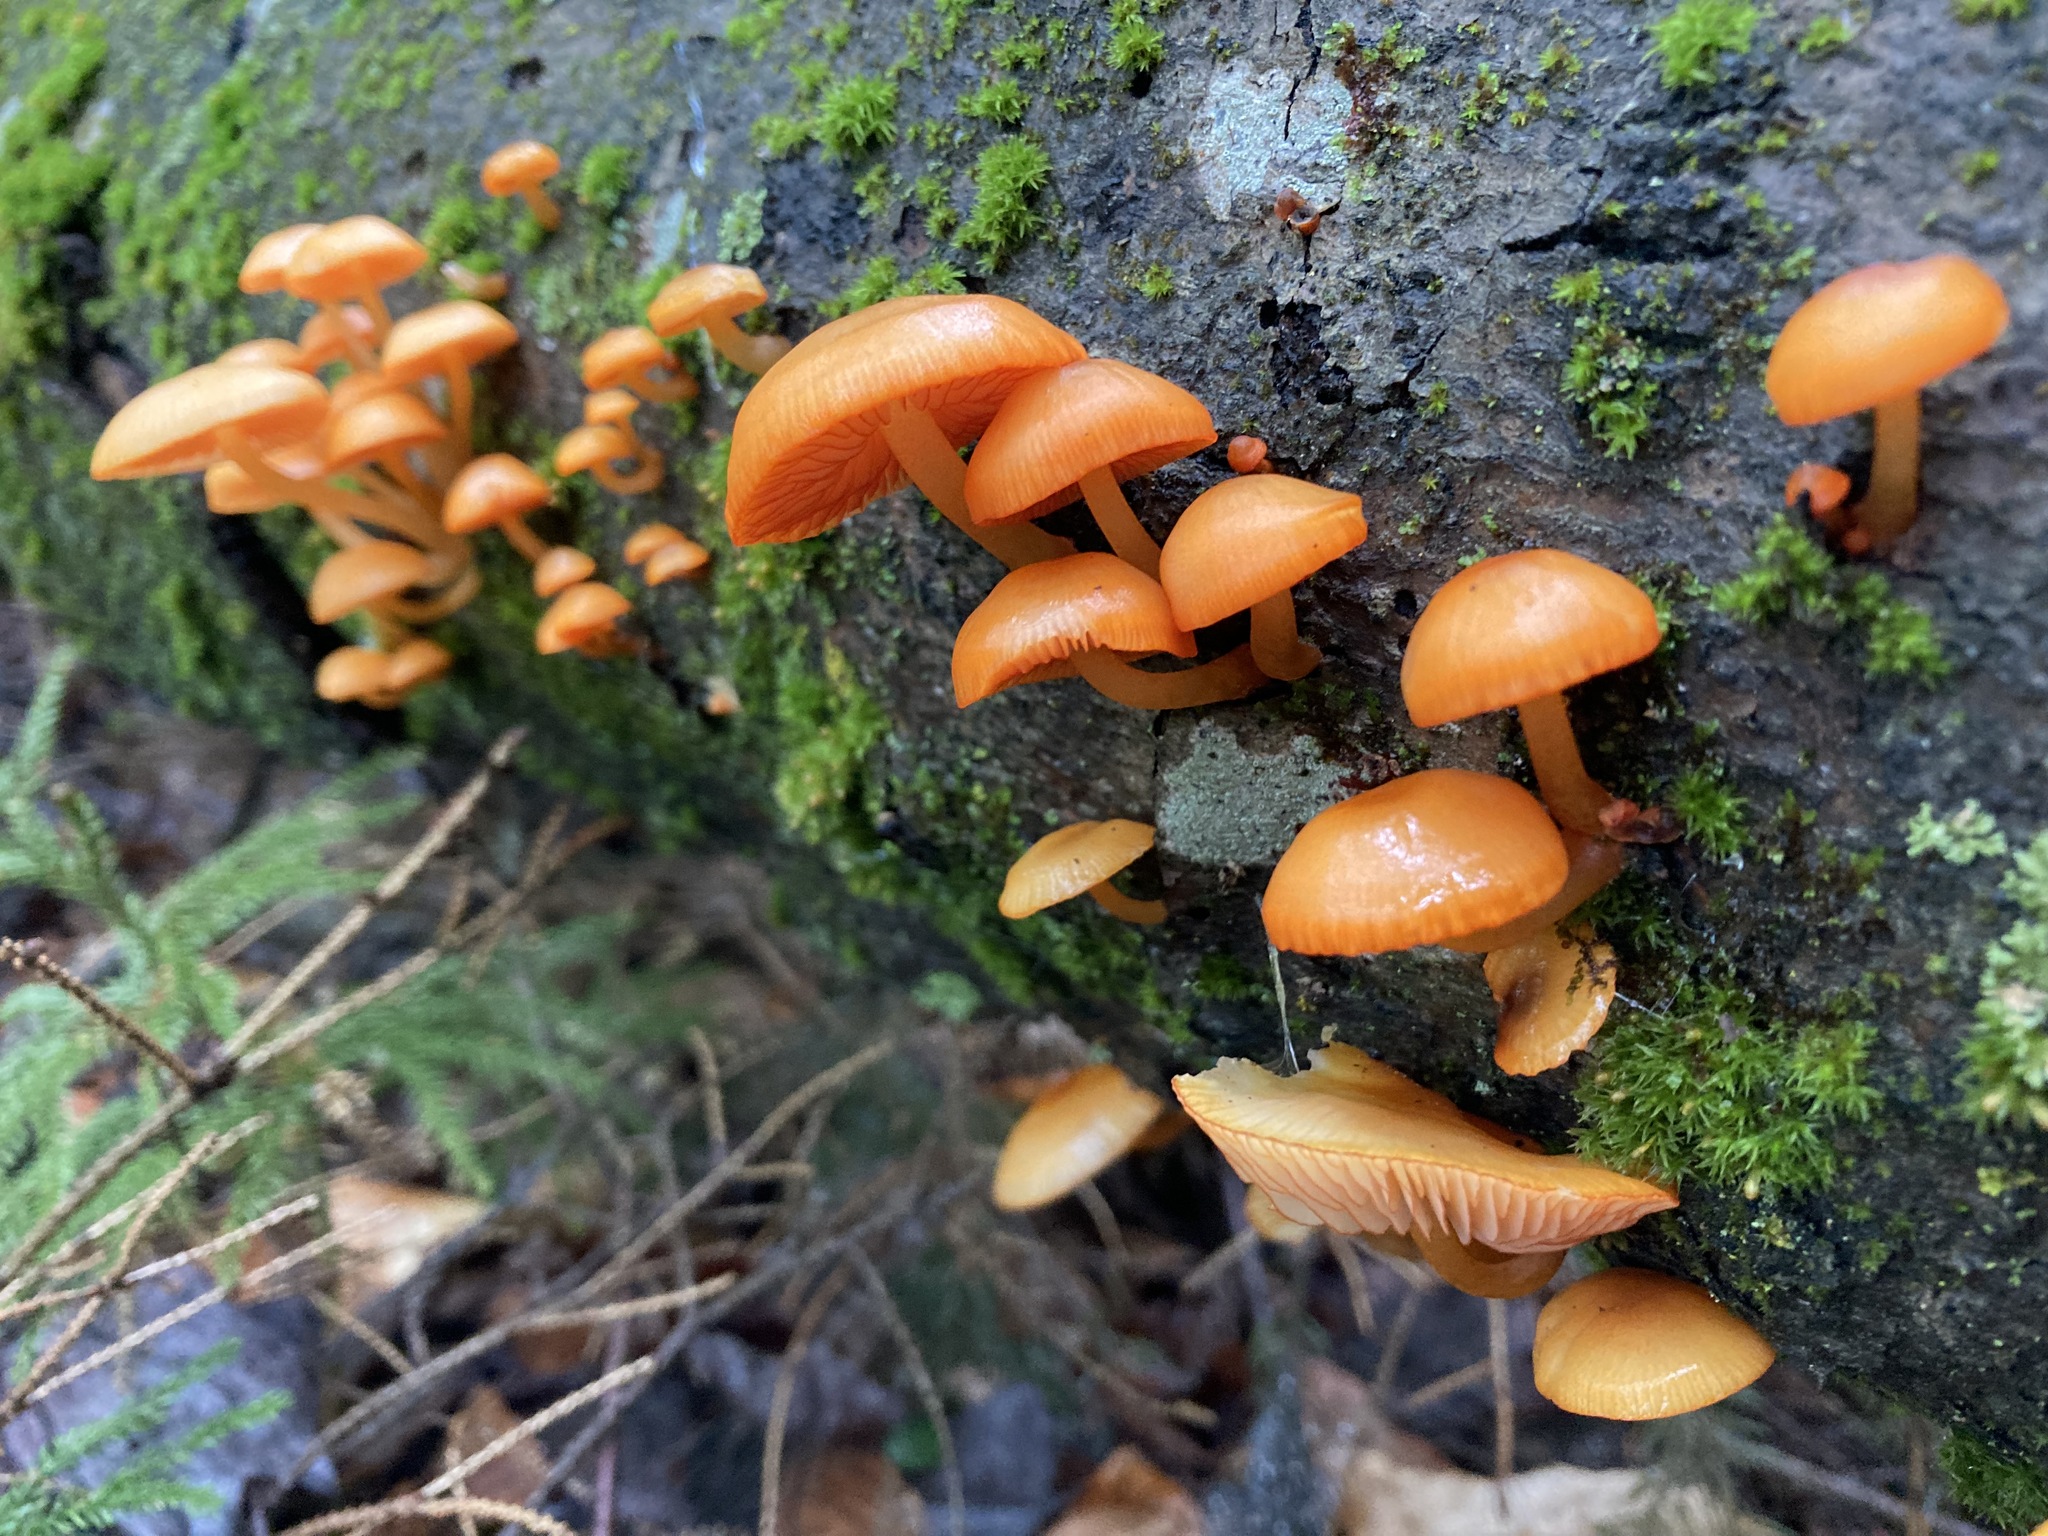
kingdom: Fungi
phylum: Basidiomycota
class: Agaricomycetes
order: Agaricales
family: Mycenaceae
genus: Mycena
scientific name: Mycena leaiana
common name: Orange mycena
